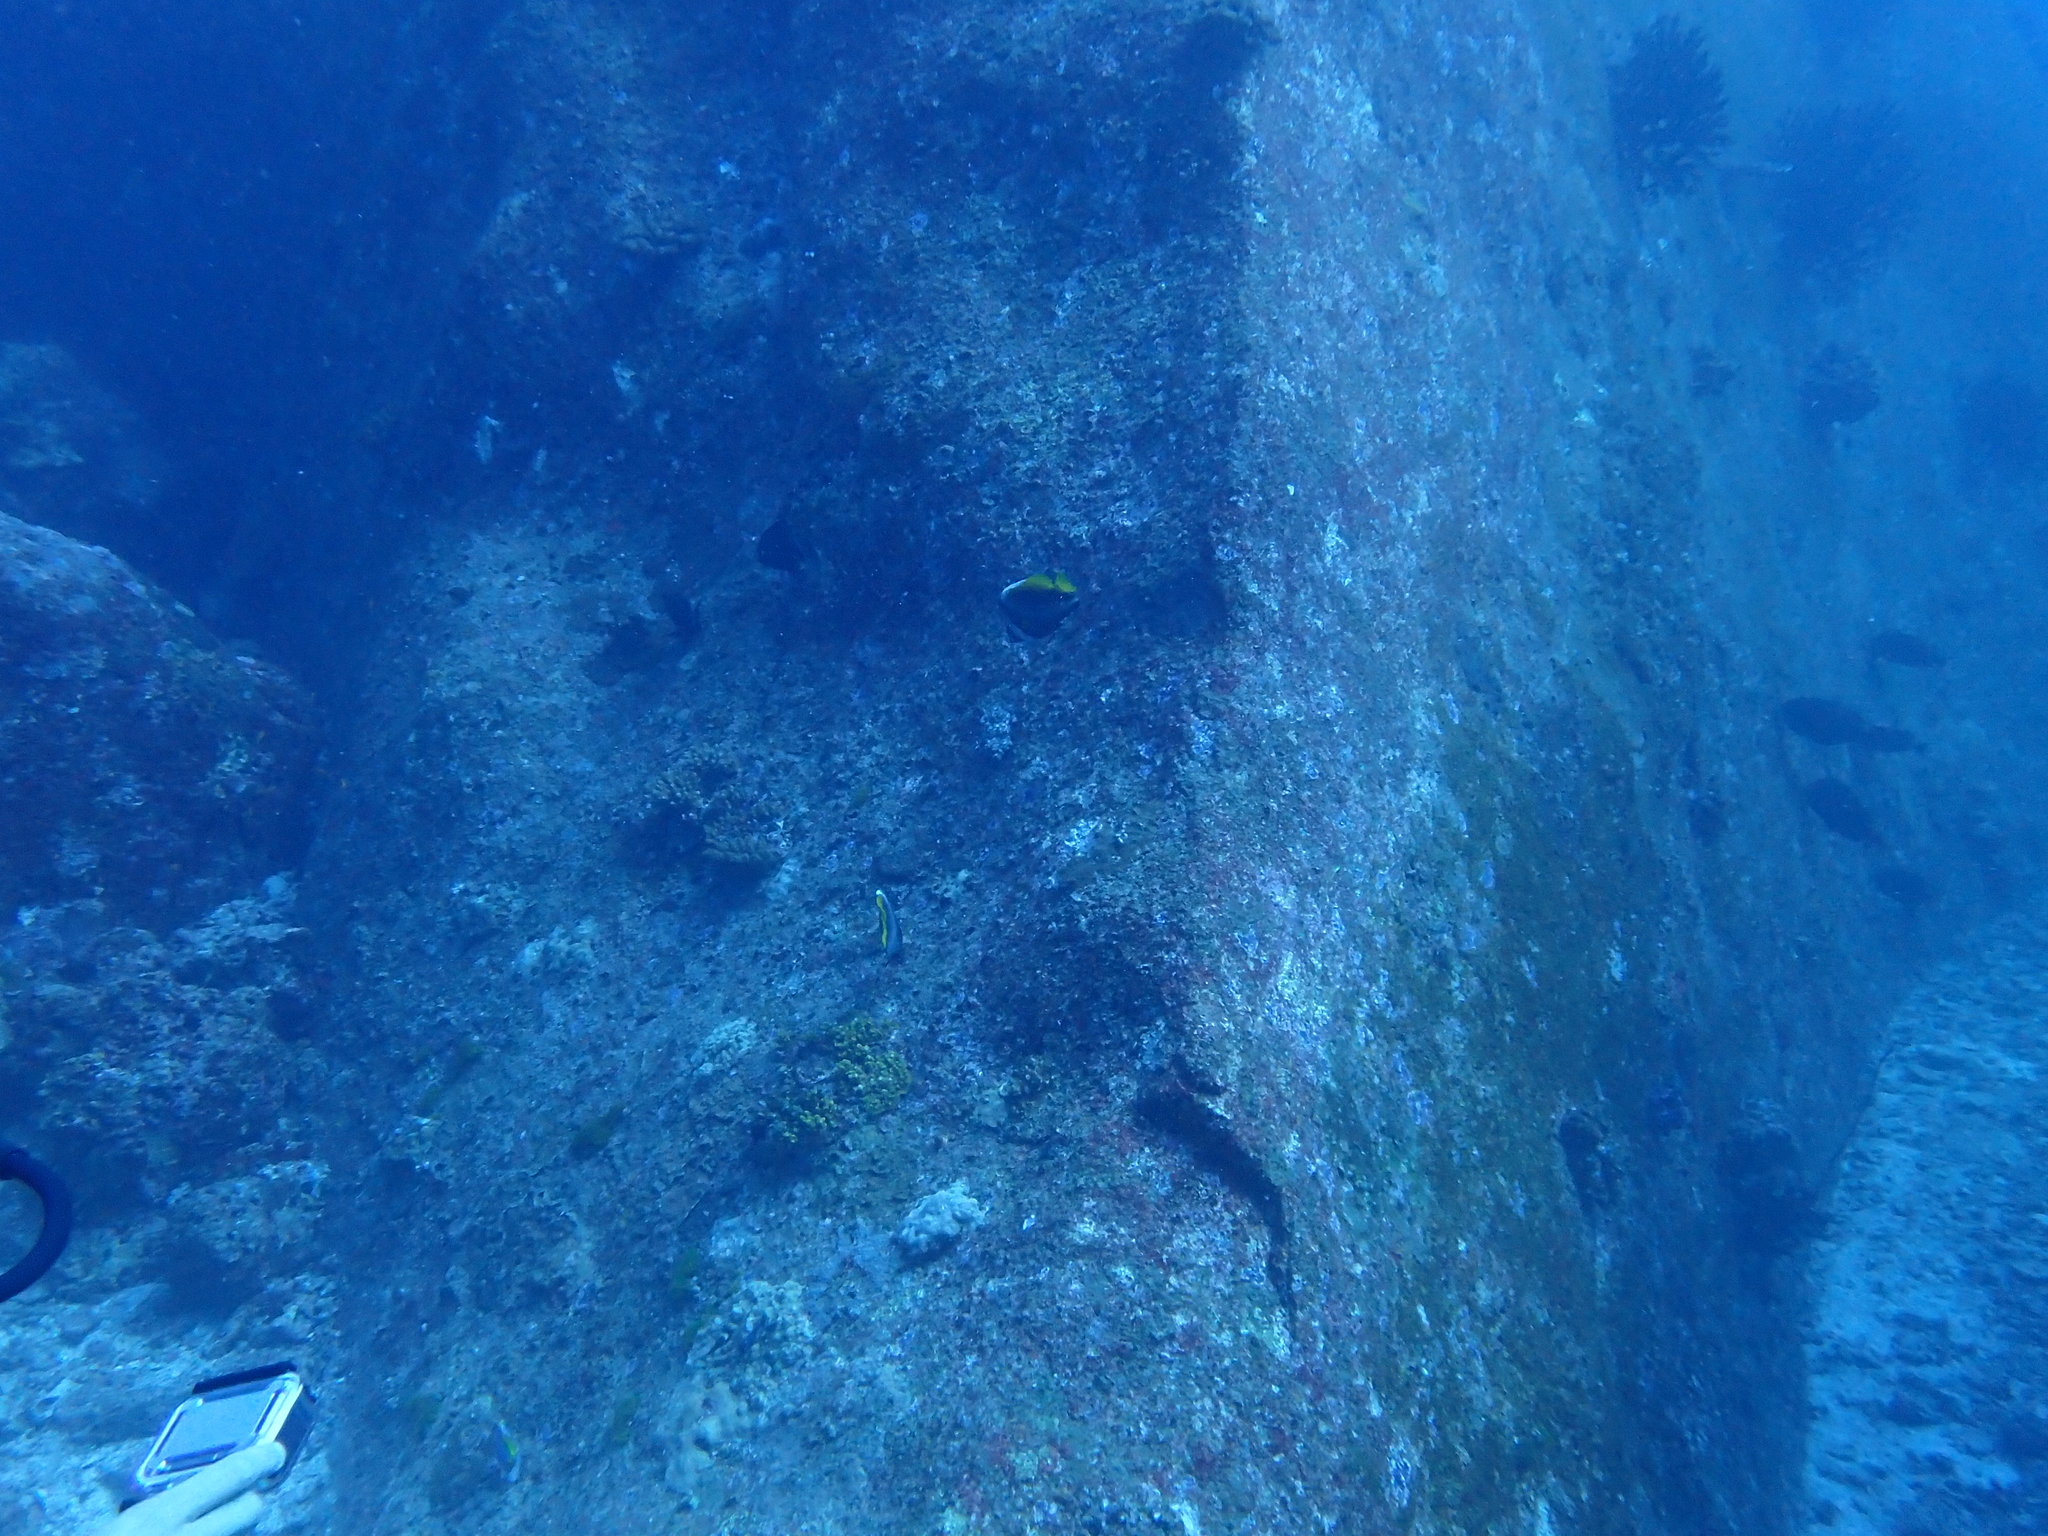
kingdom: Animalia
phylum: Chordata
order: Perciformes
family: Chaetodontidae
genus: Heniochus
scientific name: Heniochus singularius
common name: Singular bannerfish
